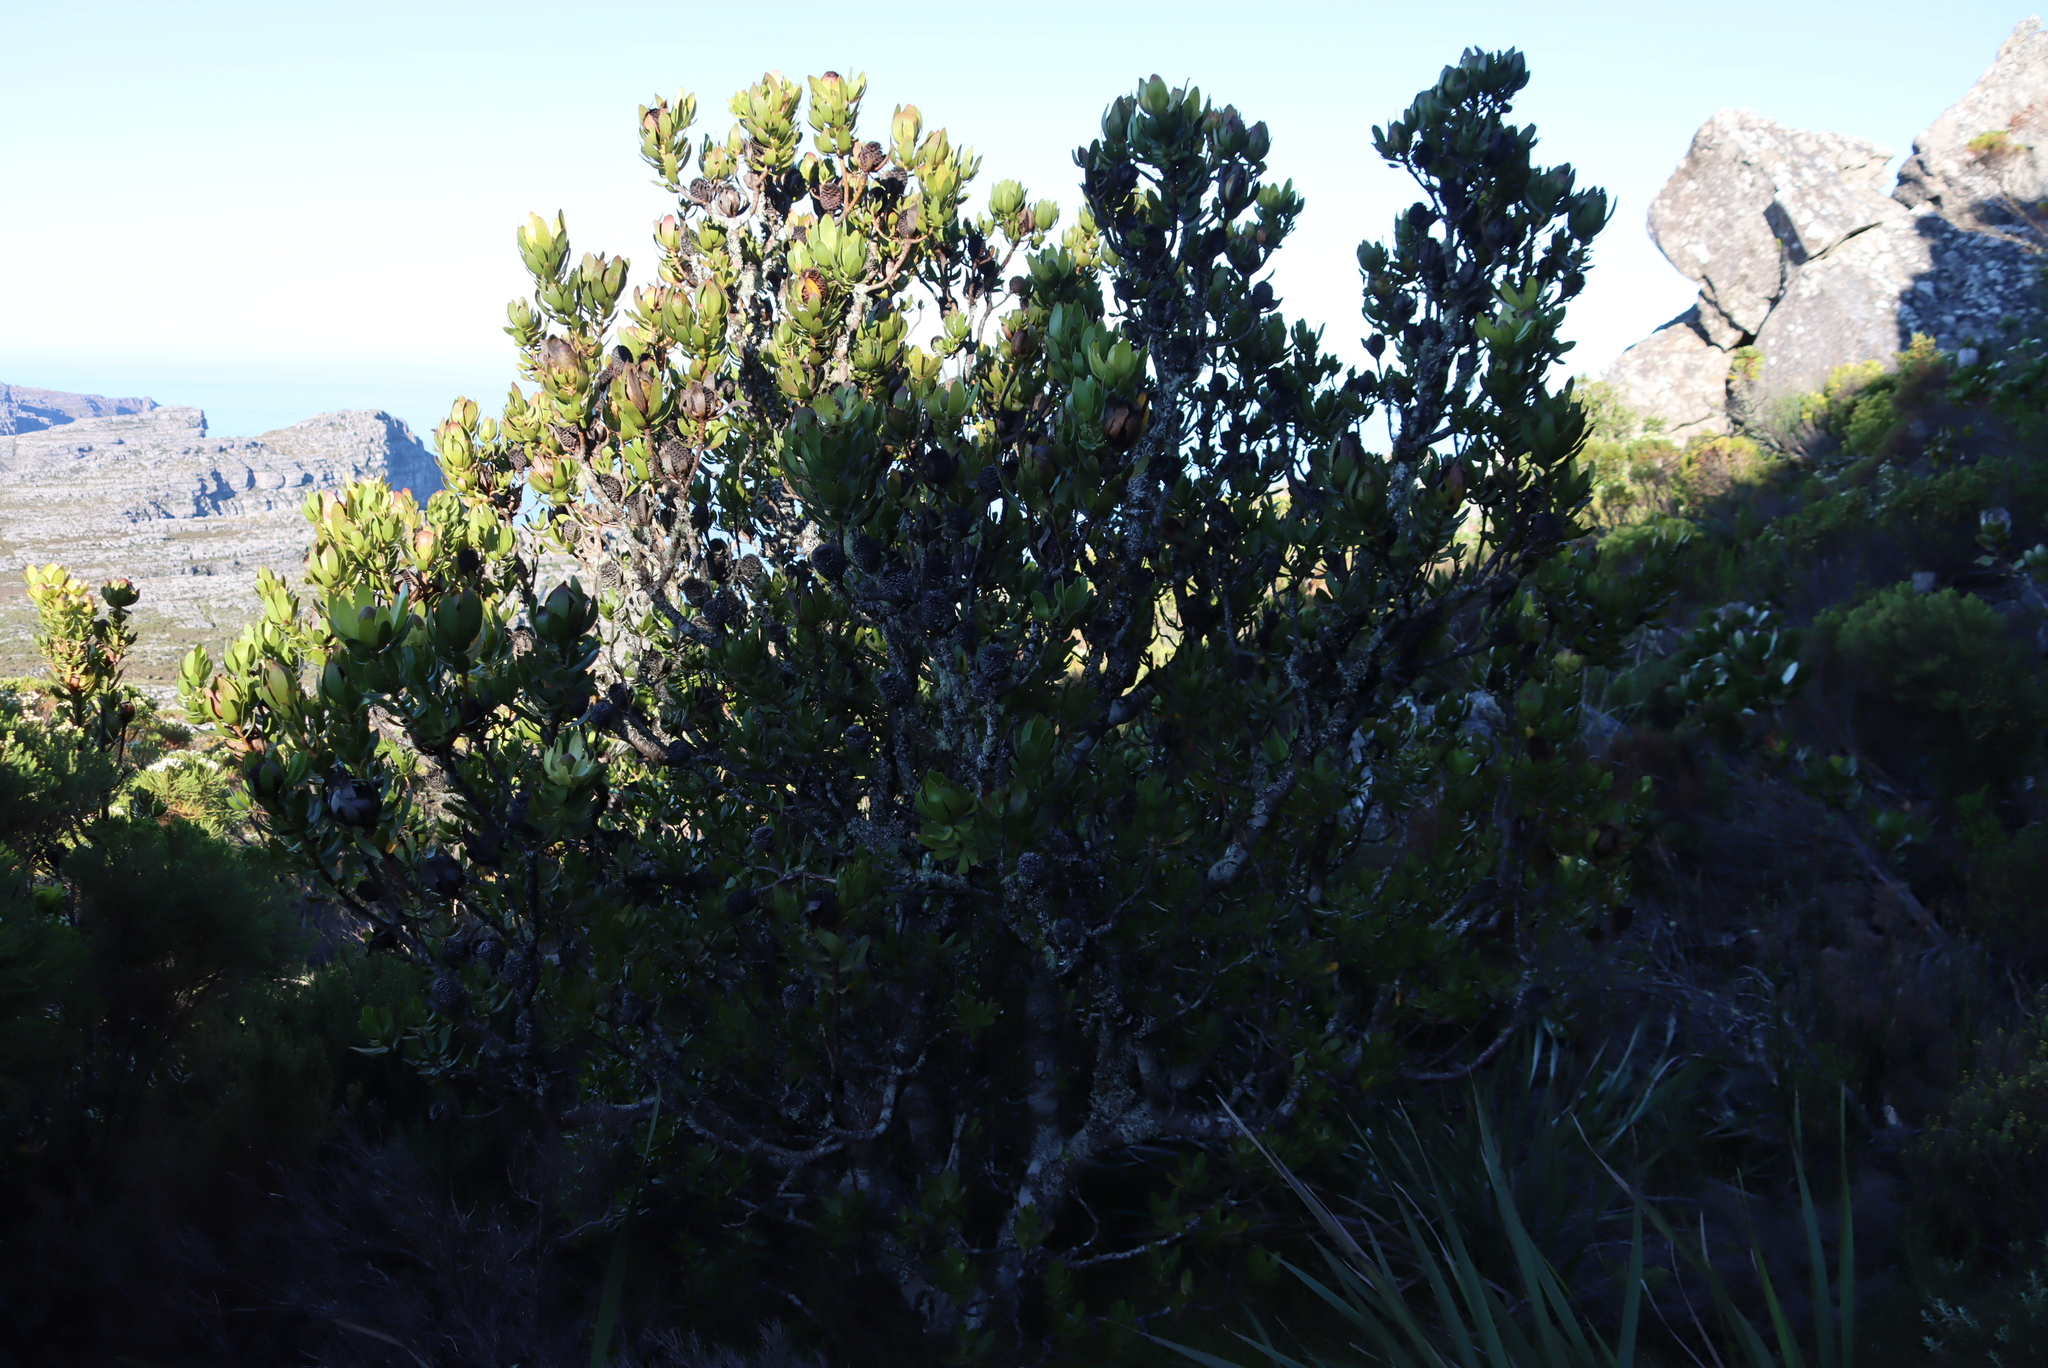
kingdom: Plantae
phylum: Tracheophyta
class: Magnoliopsida
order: Proteales
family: Proteaceae
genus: Leucadendron
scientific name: Leucadendron strobilinum
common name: Mountain rose
